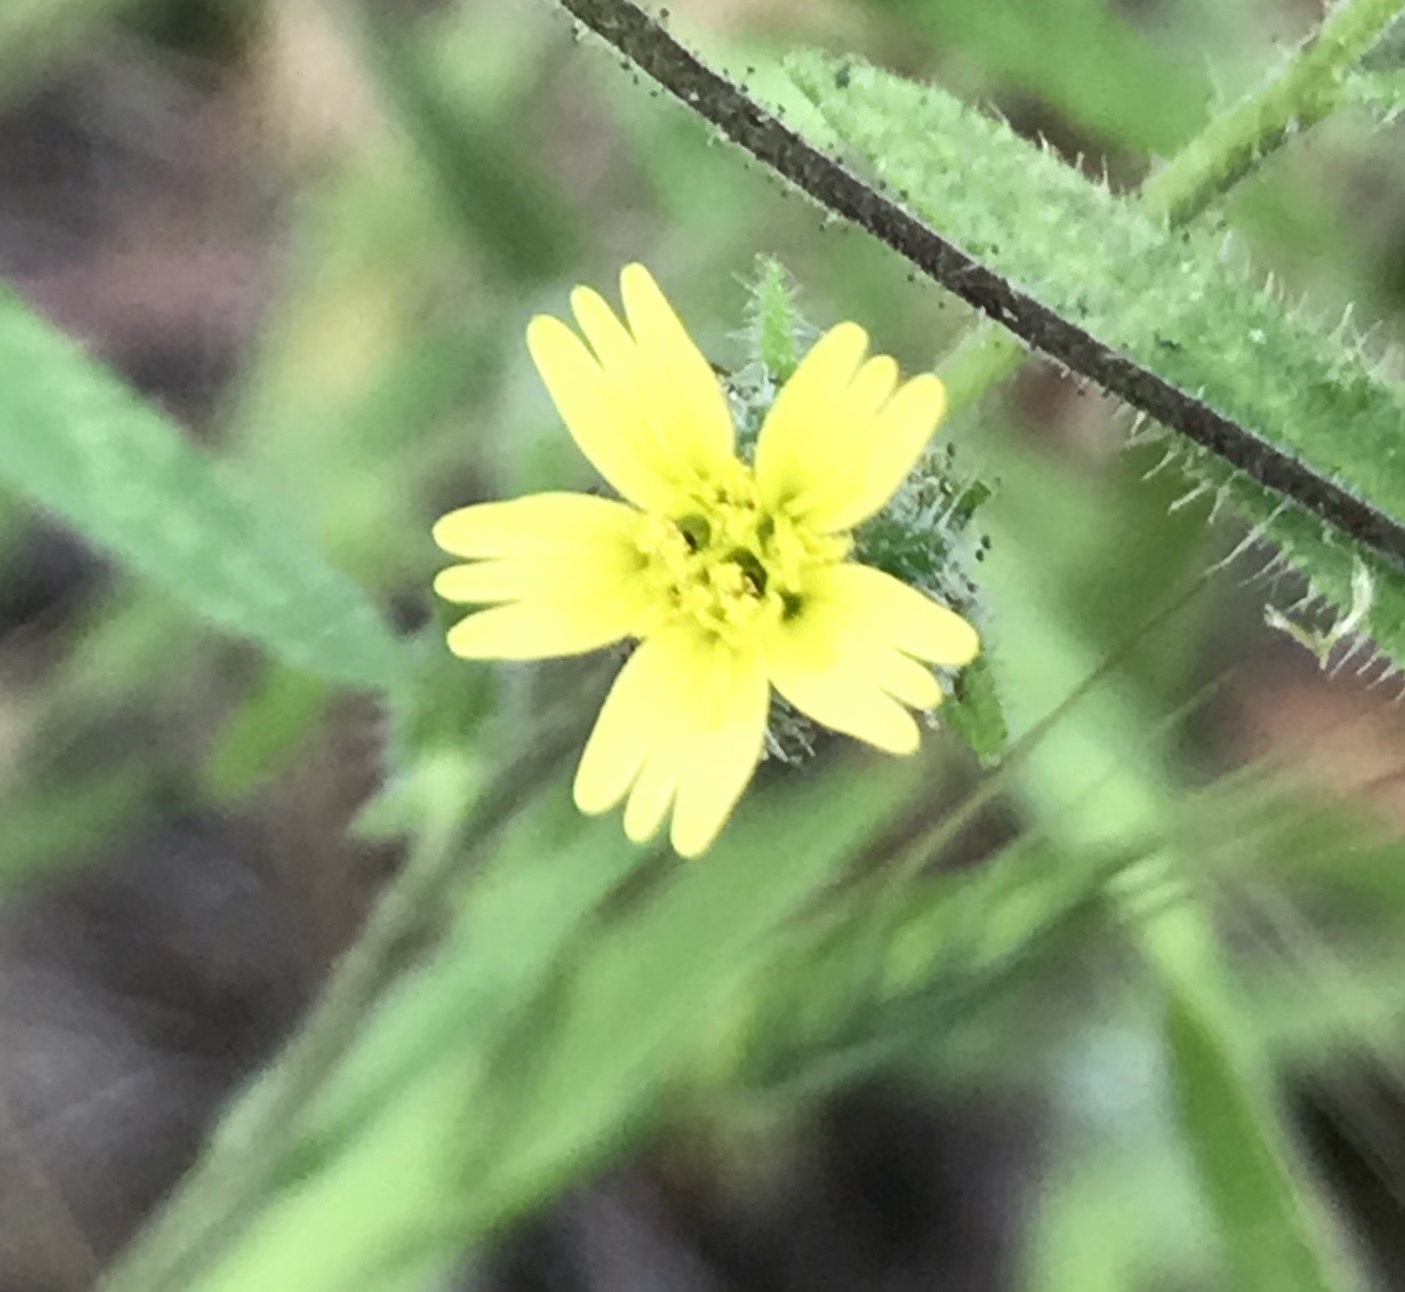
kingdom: Plantae
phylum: Tracheophyta
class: Magnoliopsida
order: Asterales
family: Asteraceae
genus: Madia
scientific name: Madia gracilis
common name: Grassy tarweed
